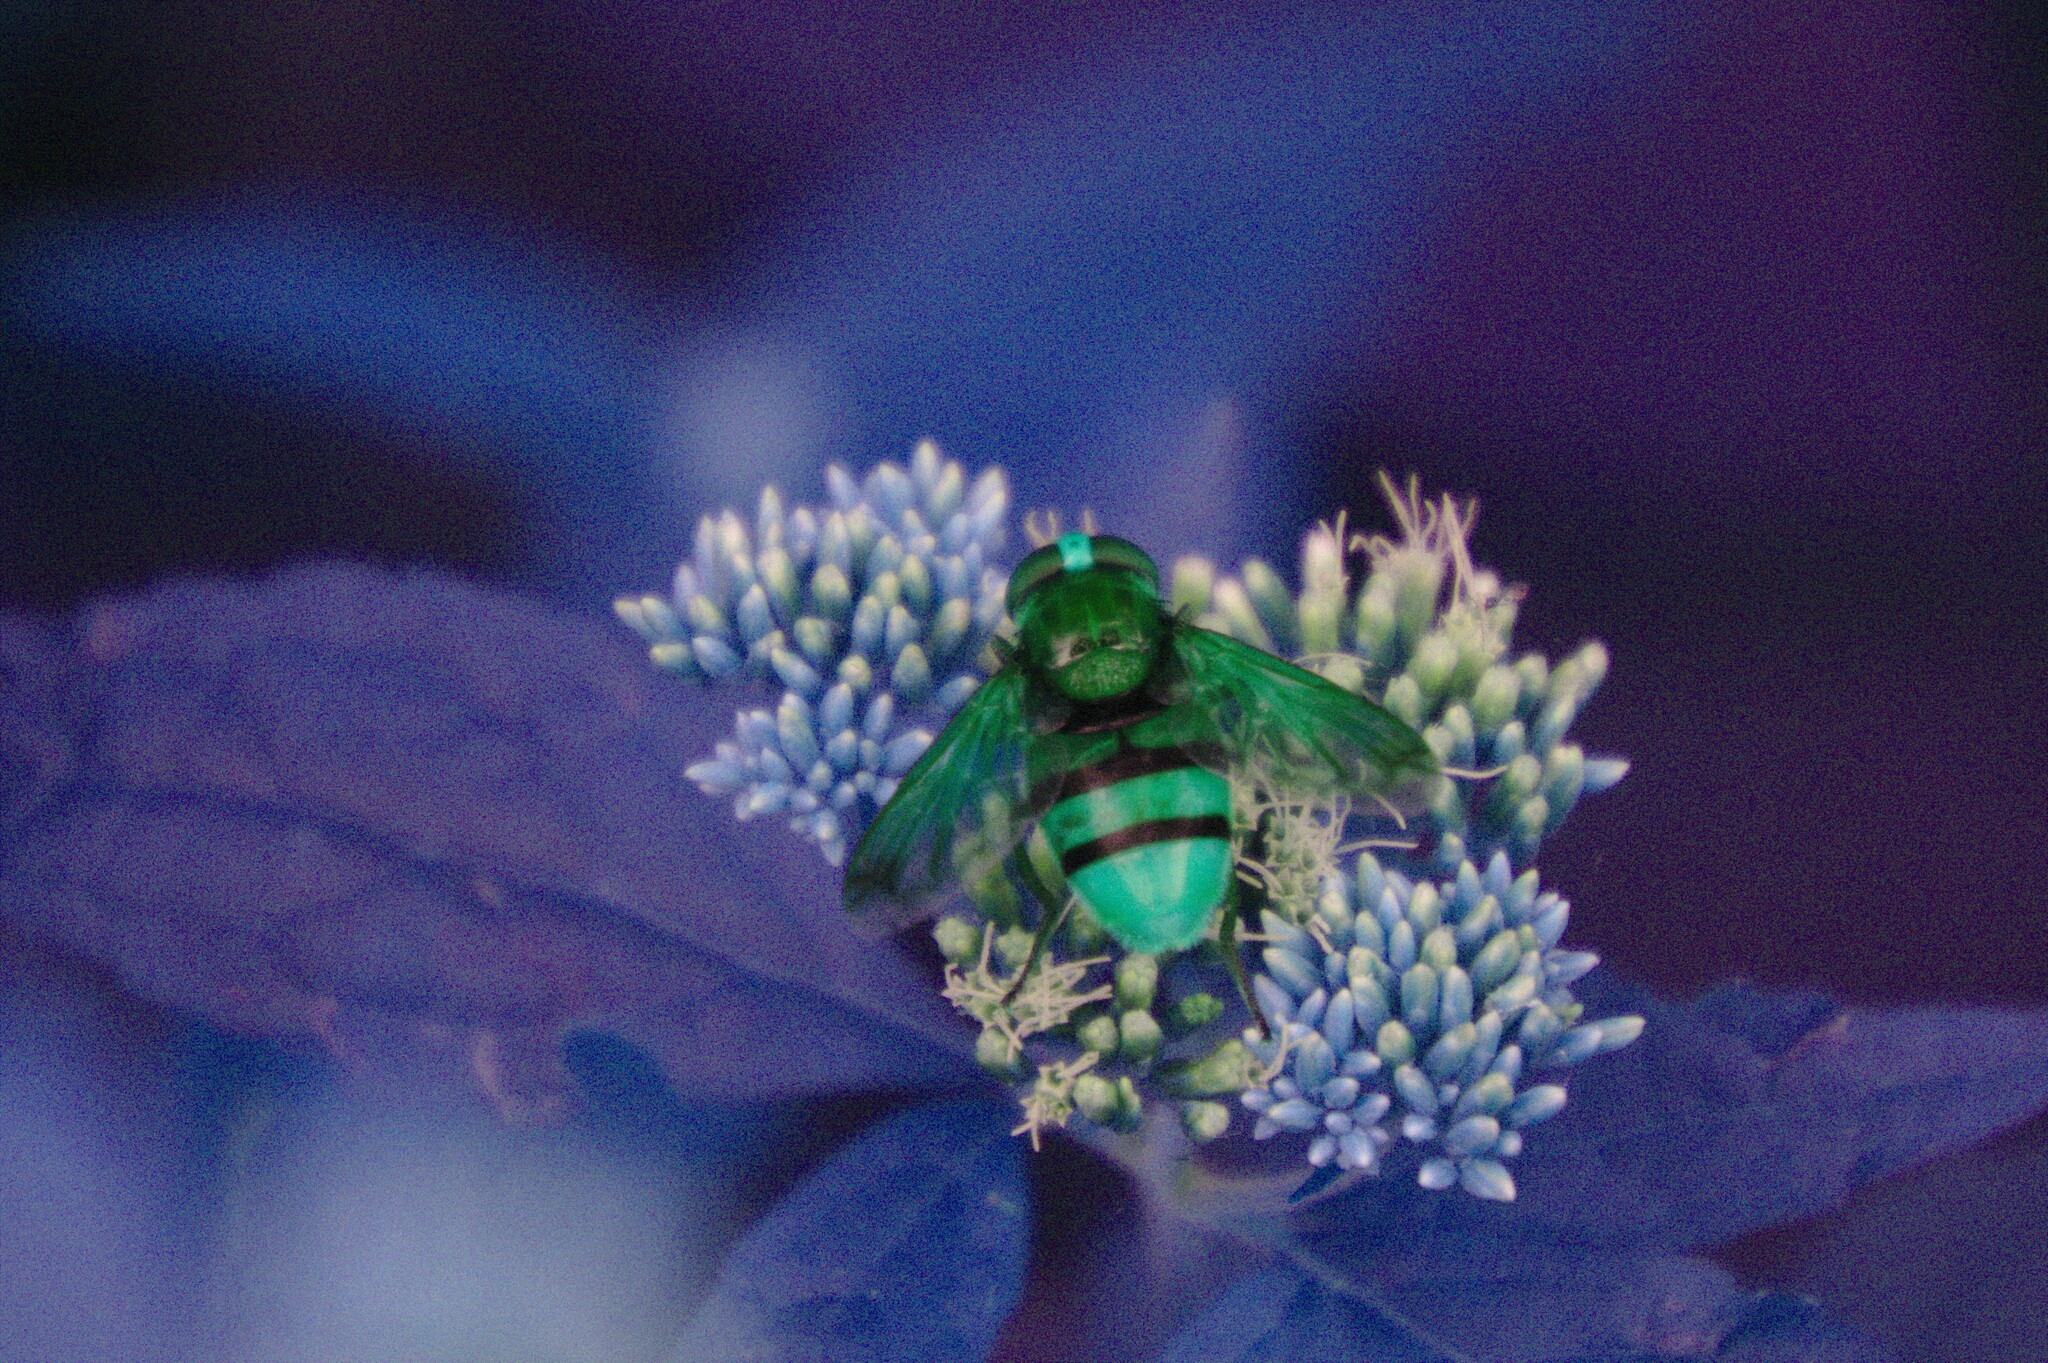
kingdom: Animalia
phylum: Arthropoda
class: Insecta
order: Diptera
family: Syrphidae
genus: Volucella
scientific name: Volucella zonaria
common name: Hornet hoverfly
